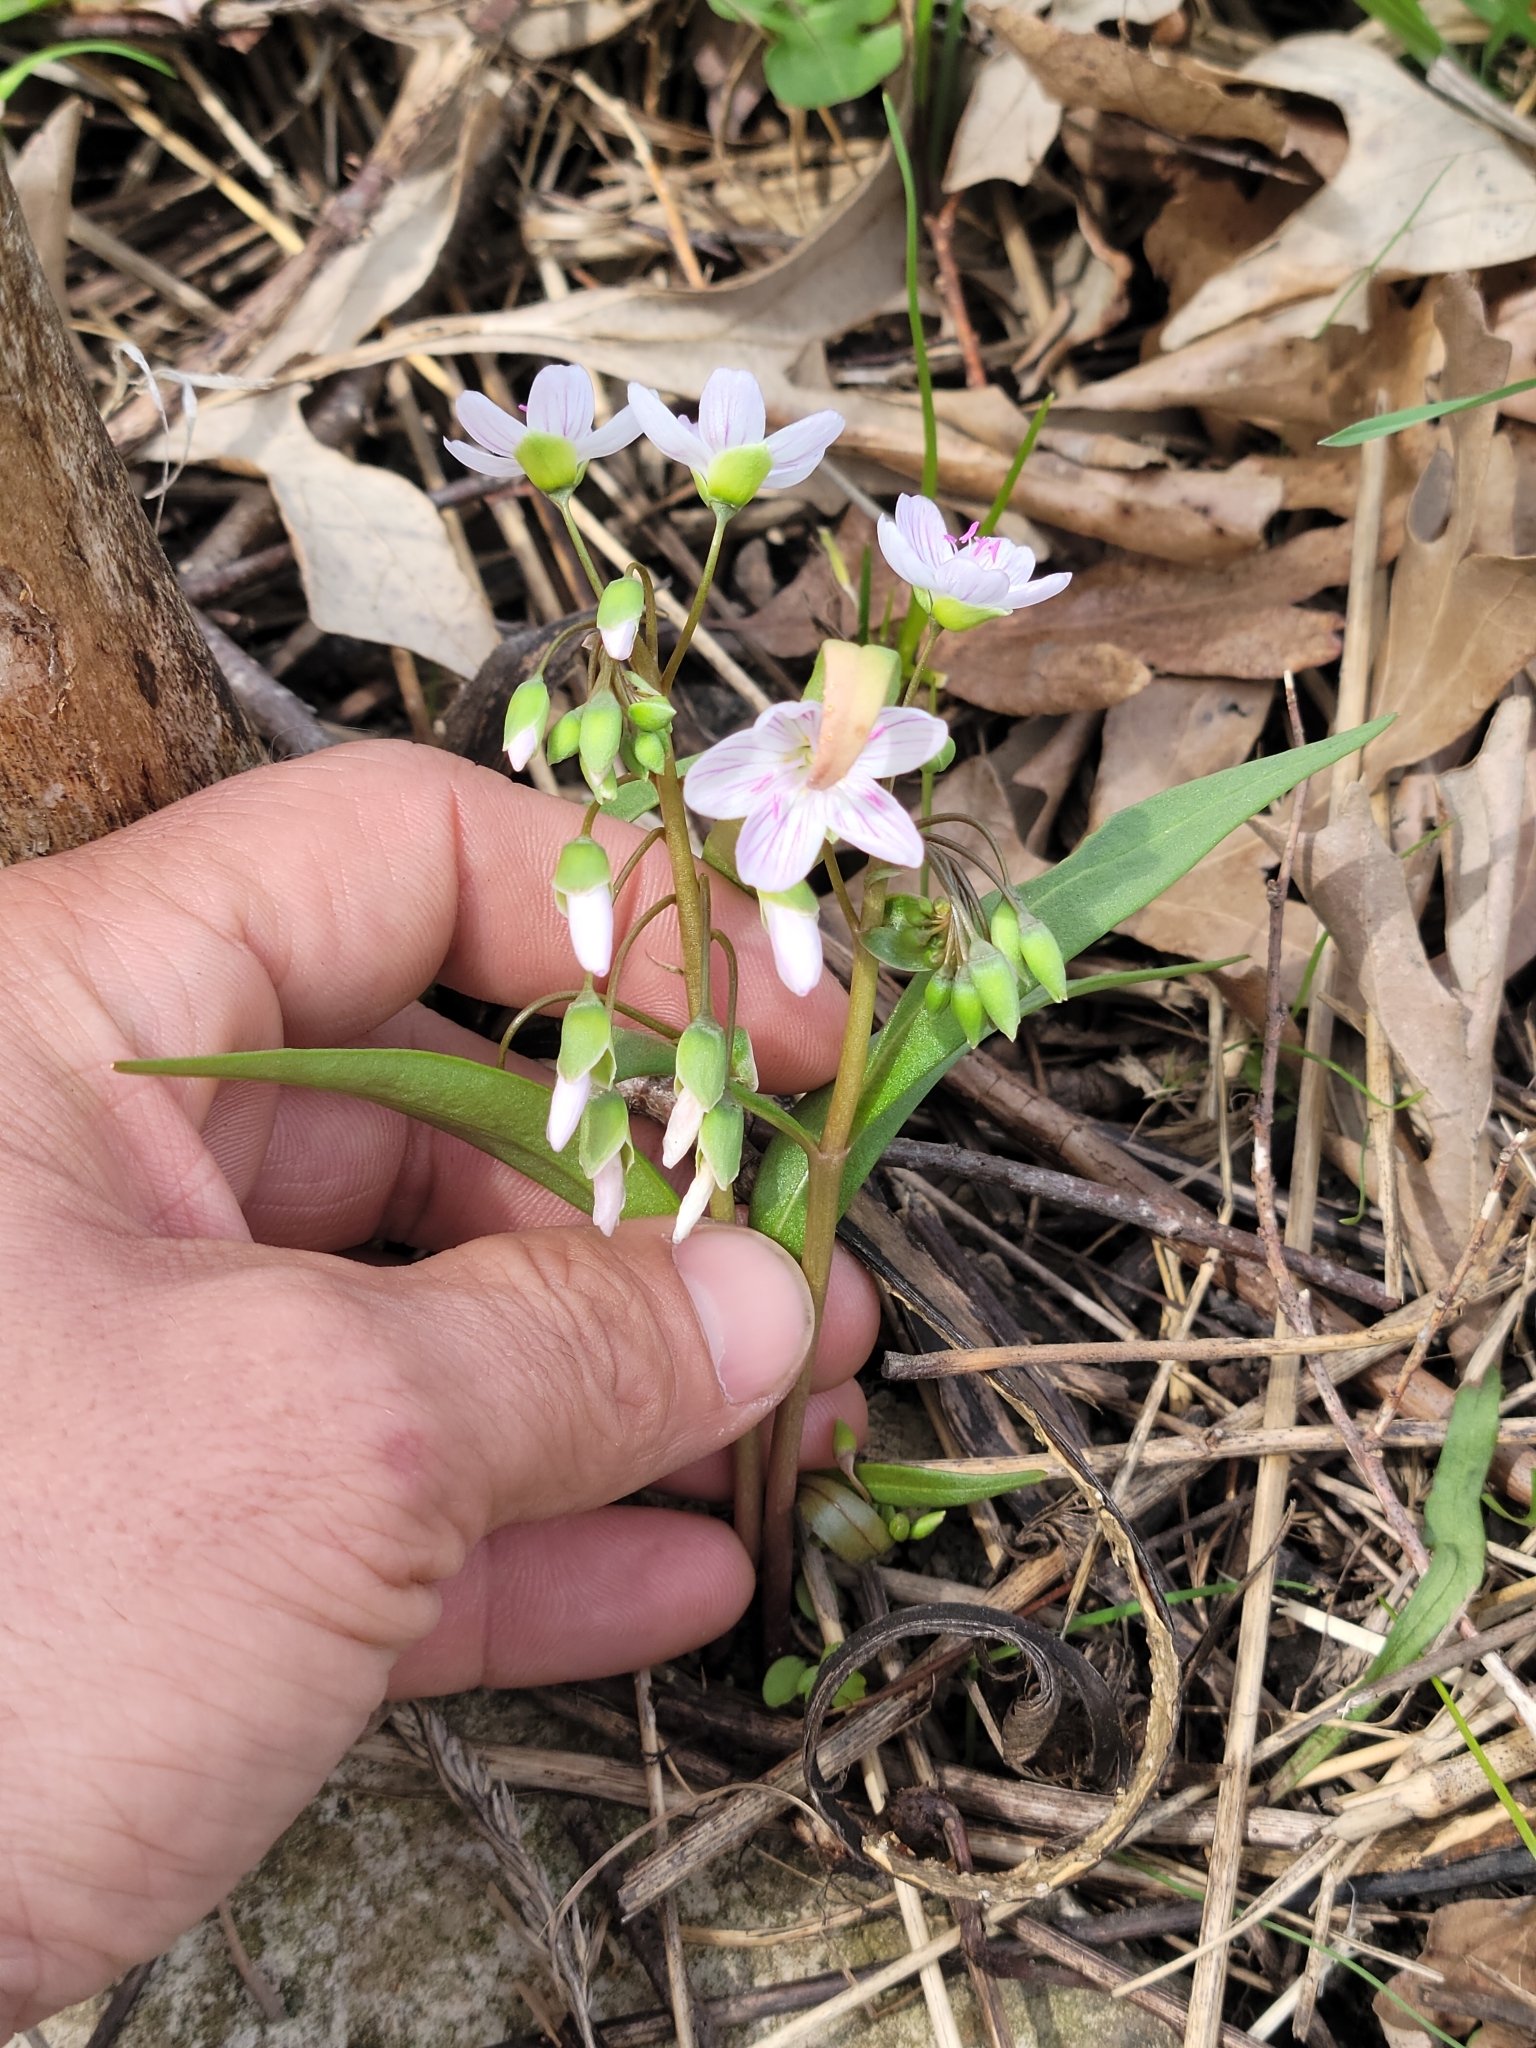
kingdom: Plantae
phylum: Tracheophyta
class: Magnoliopsida
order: Caryophyllales
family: Montiaceae
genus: Claytonia
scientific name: Claytonia virginica
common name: Virginia springbeauty
